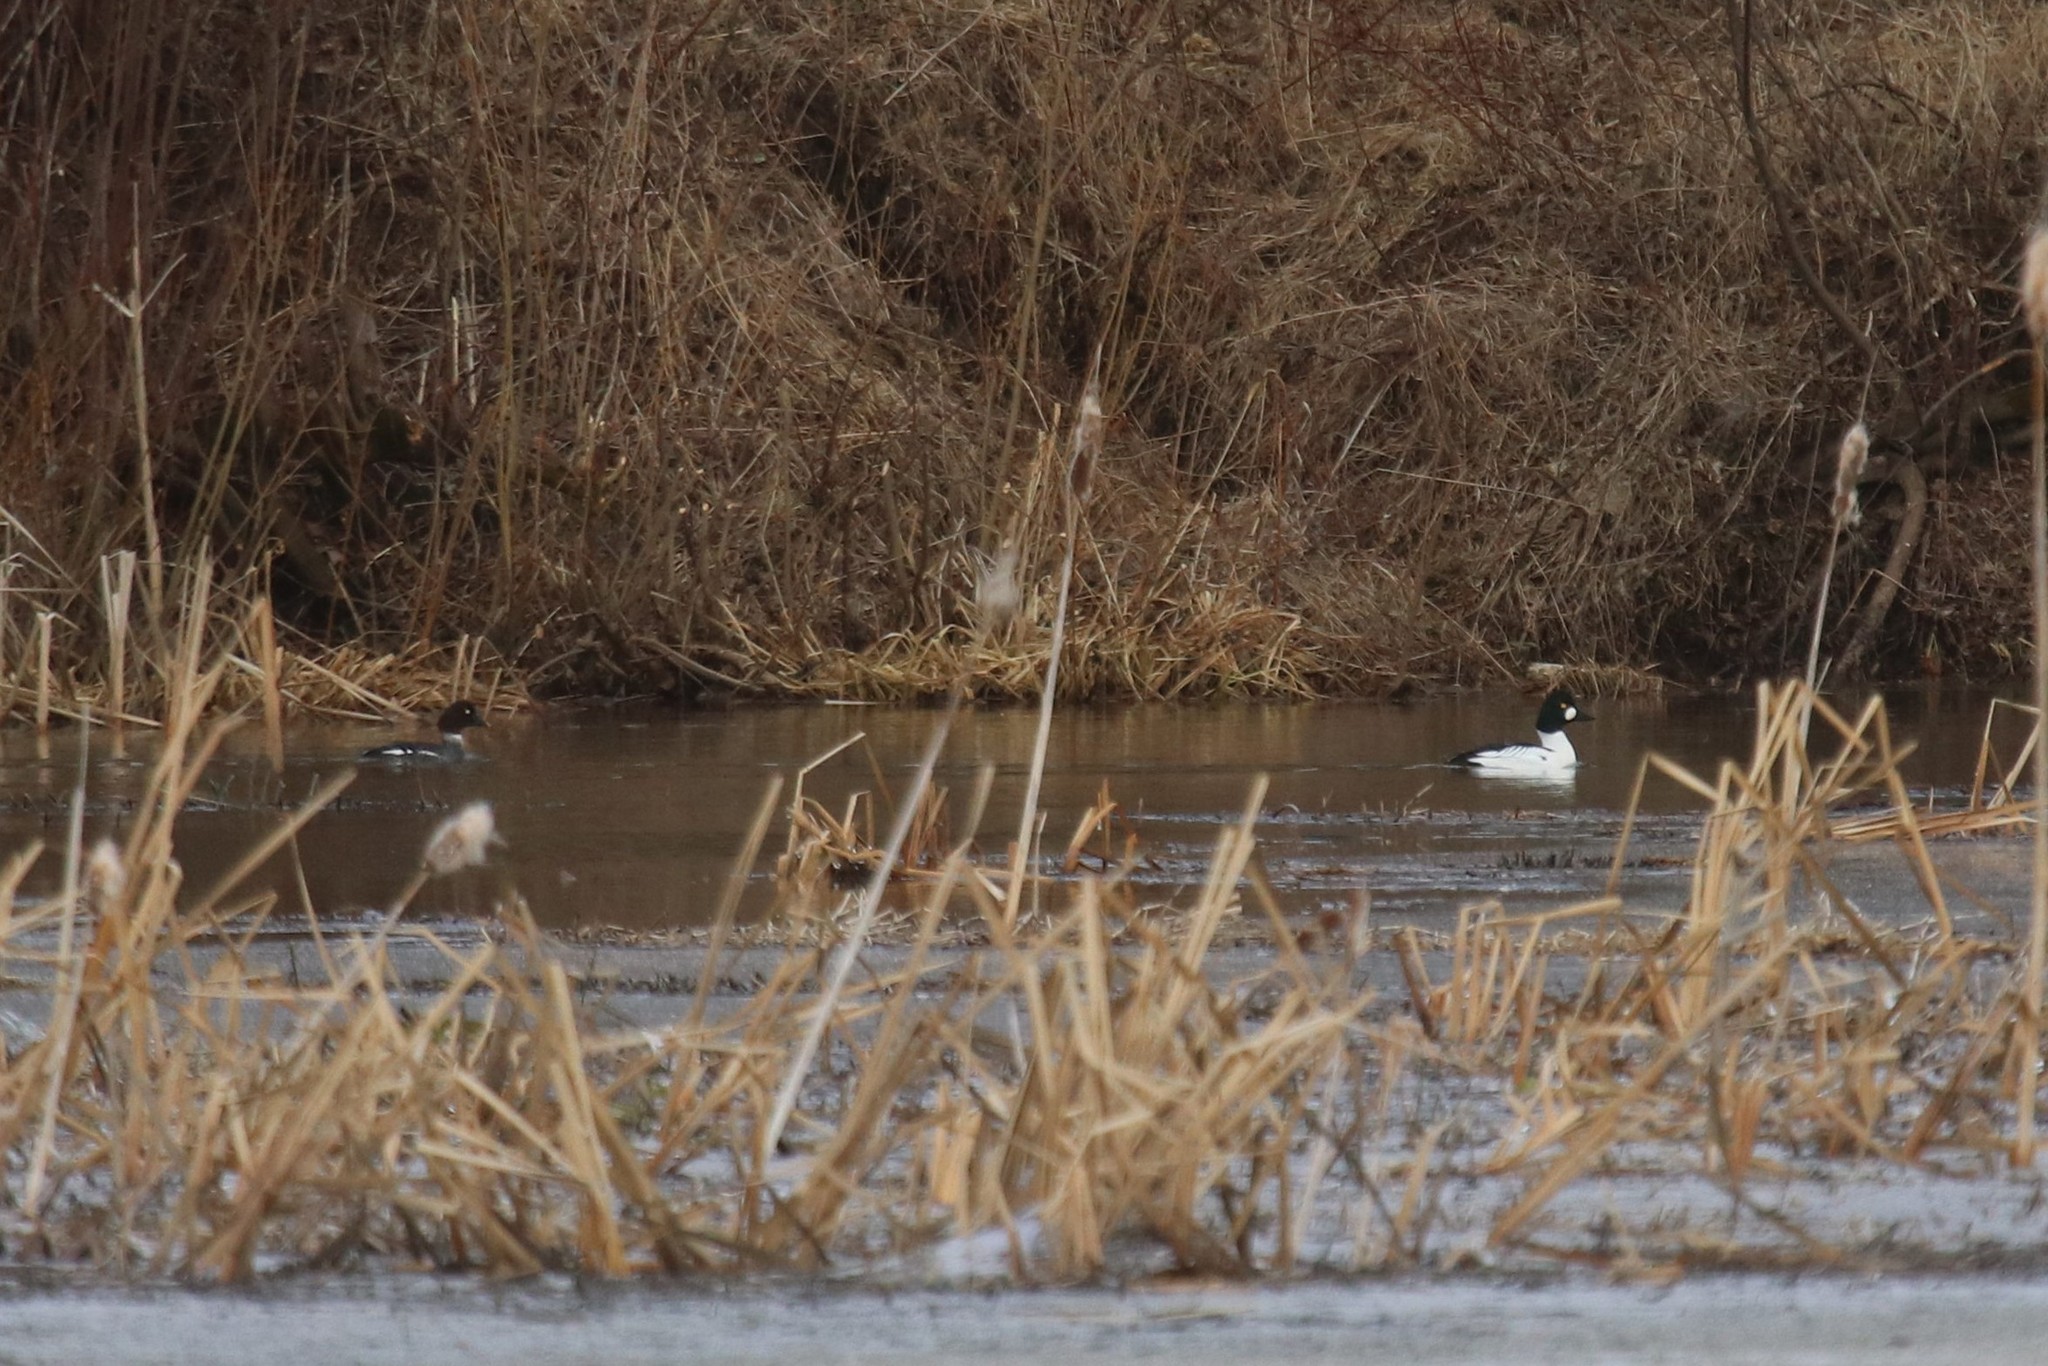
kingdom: Animalia
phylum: Chordata
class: Aves
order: Anseriformes
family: Anatidae
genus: Bucephala
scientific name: Bucephala clangula
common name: Common goldeneye
